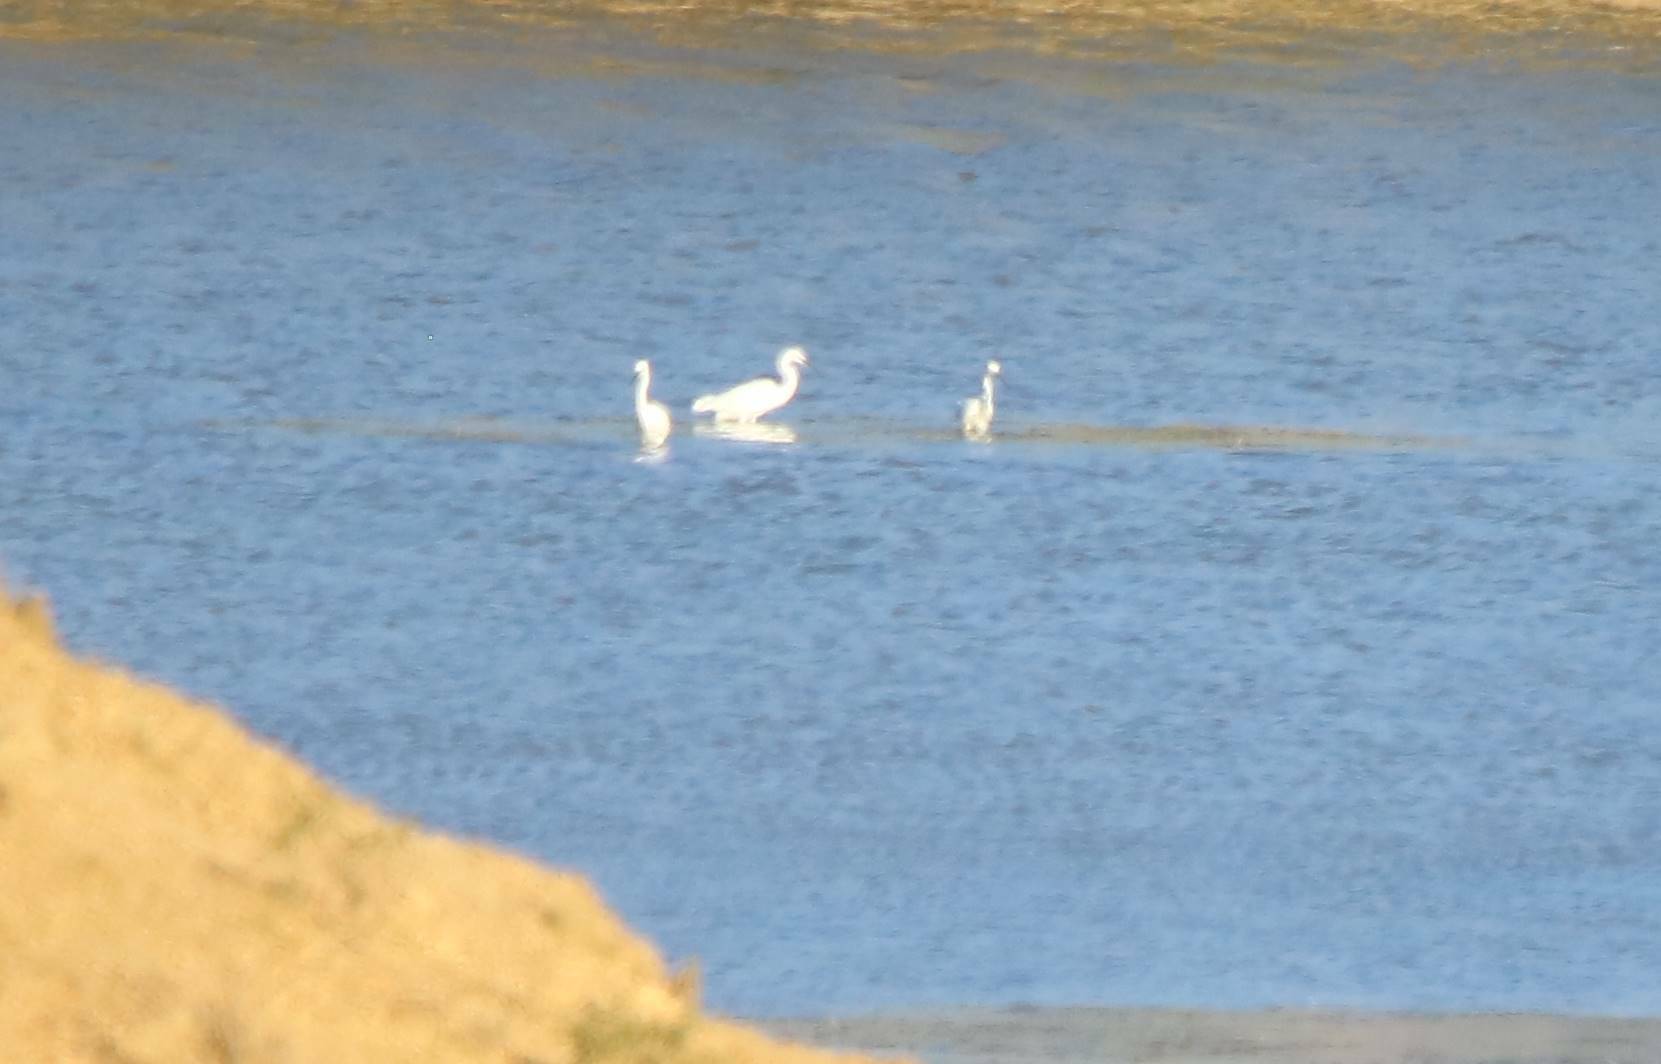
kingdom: Animalia
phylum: Chordata
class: Aves
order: Pelecaniformes
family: Ardeidae
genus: Egretta
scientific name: Egretta garzetta
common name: Little egret
